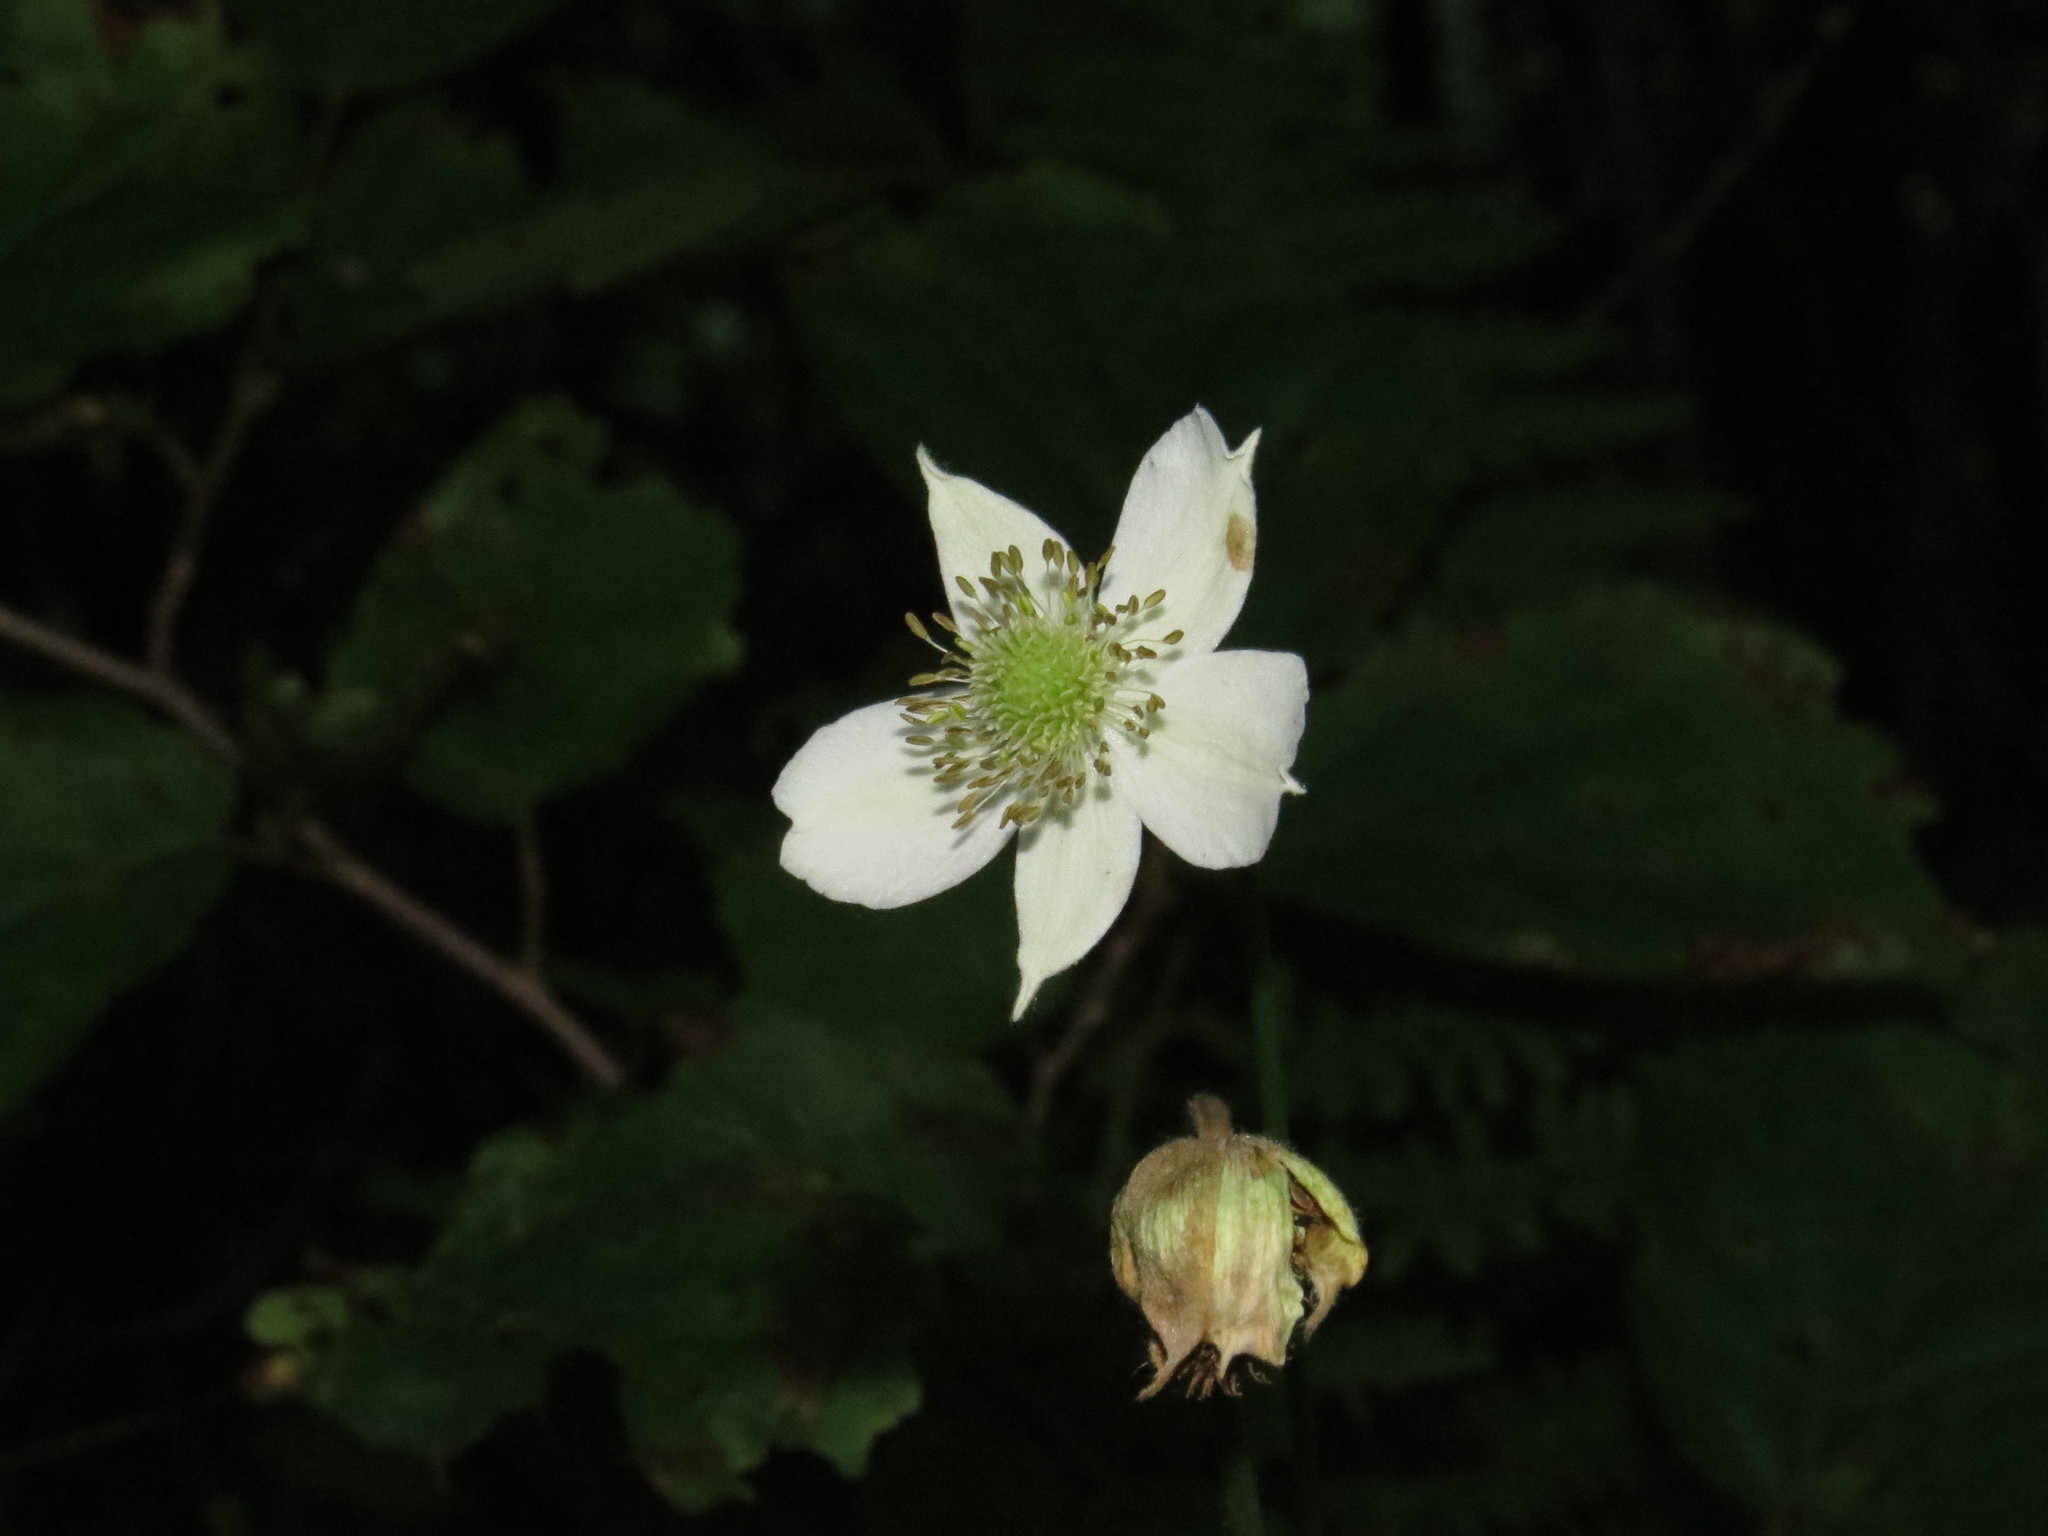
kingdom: Plantae
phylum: Tracheophyta
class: Magnoliopsida
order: Ranunculales
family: Ranunculaceae
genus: Anemone
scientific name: Anemone virginiana
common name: Tall anemone
